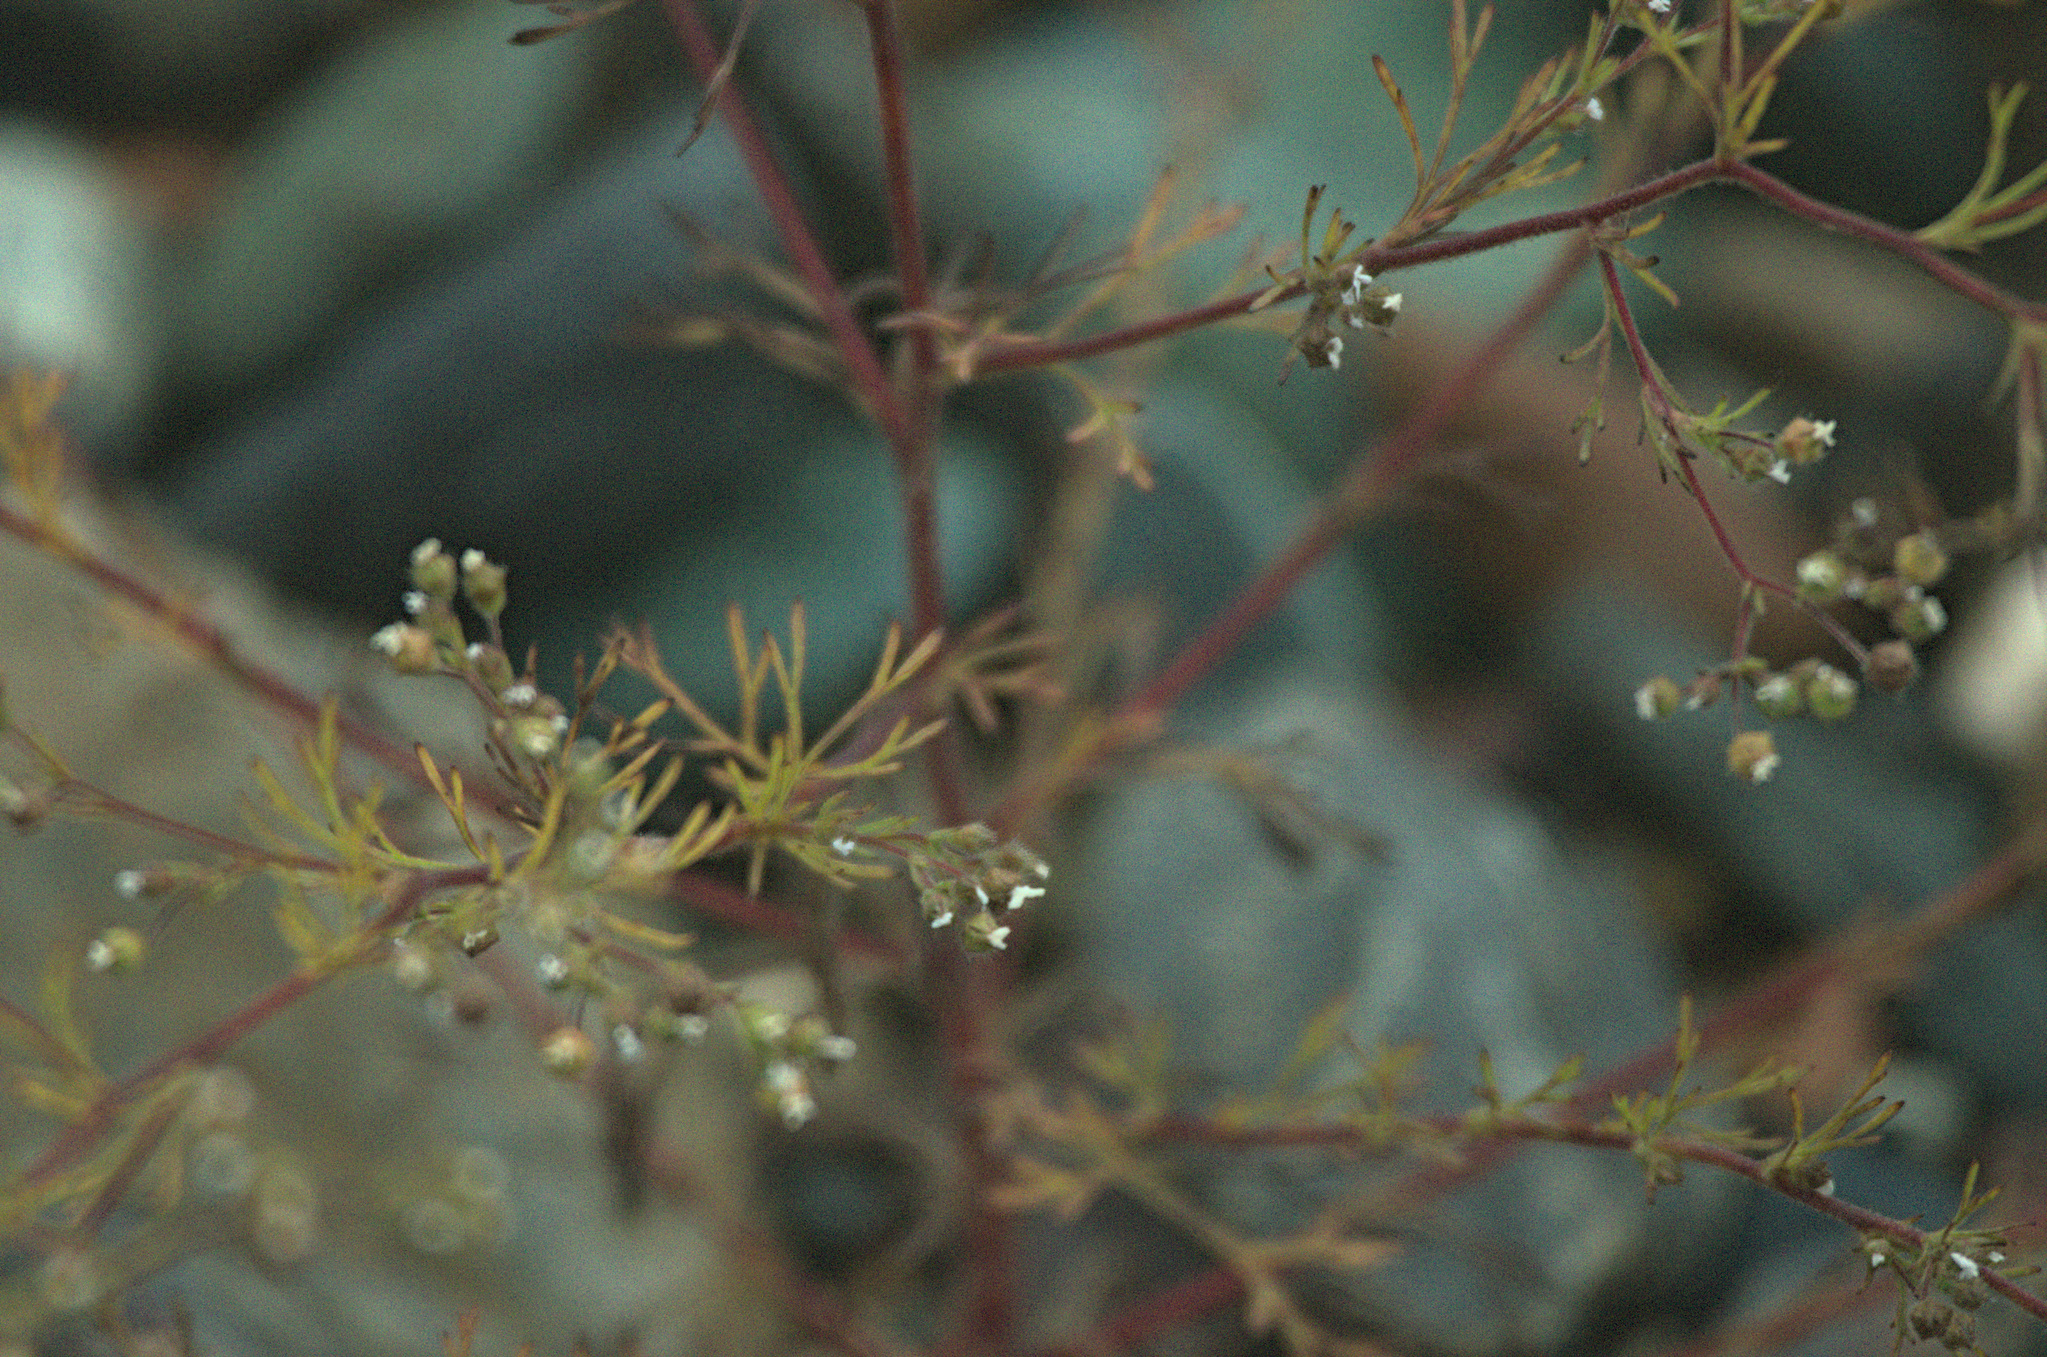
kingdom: Plantae
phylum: Tracheophyta
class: Magnoliopsida
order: Rosales
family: Rosaceae
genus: Chamaerhodos
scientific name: Chamaerhodos erecta
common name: American chamaerhodos
